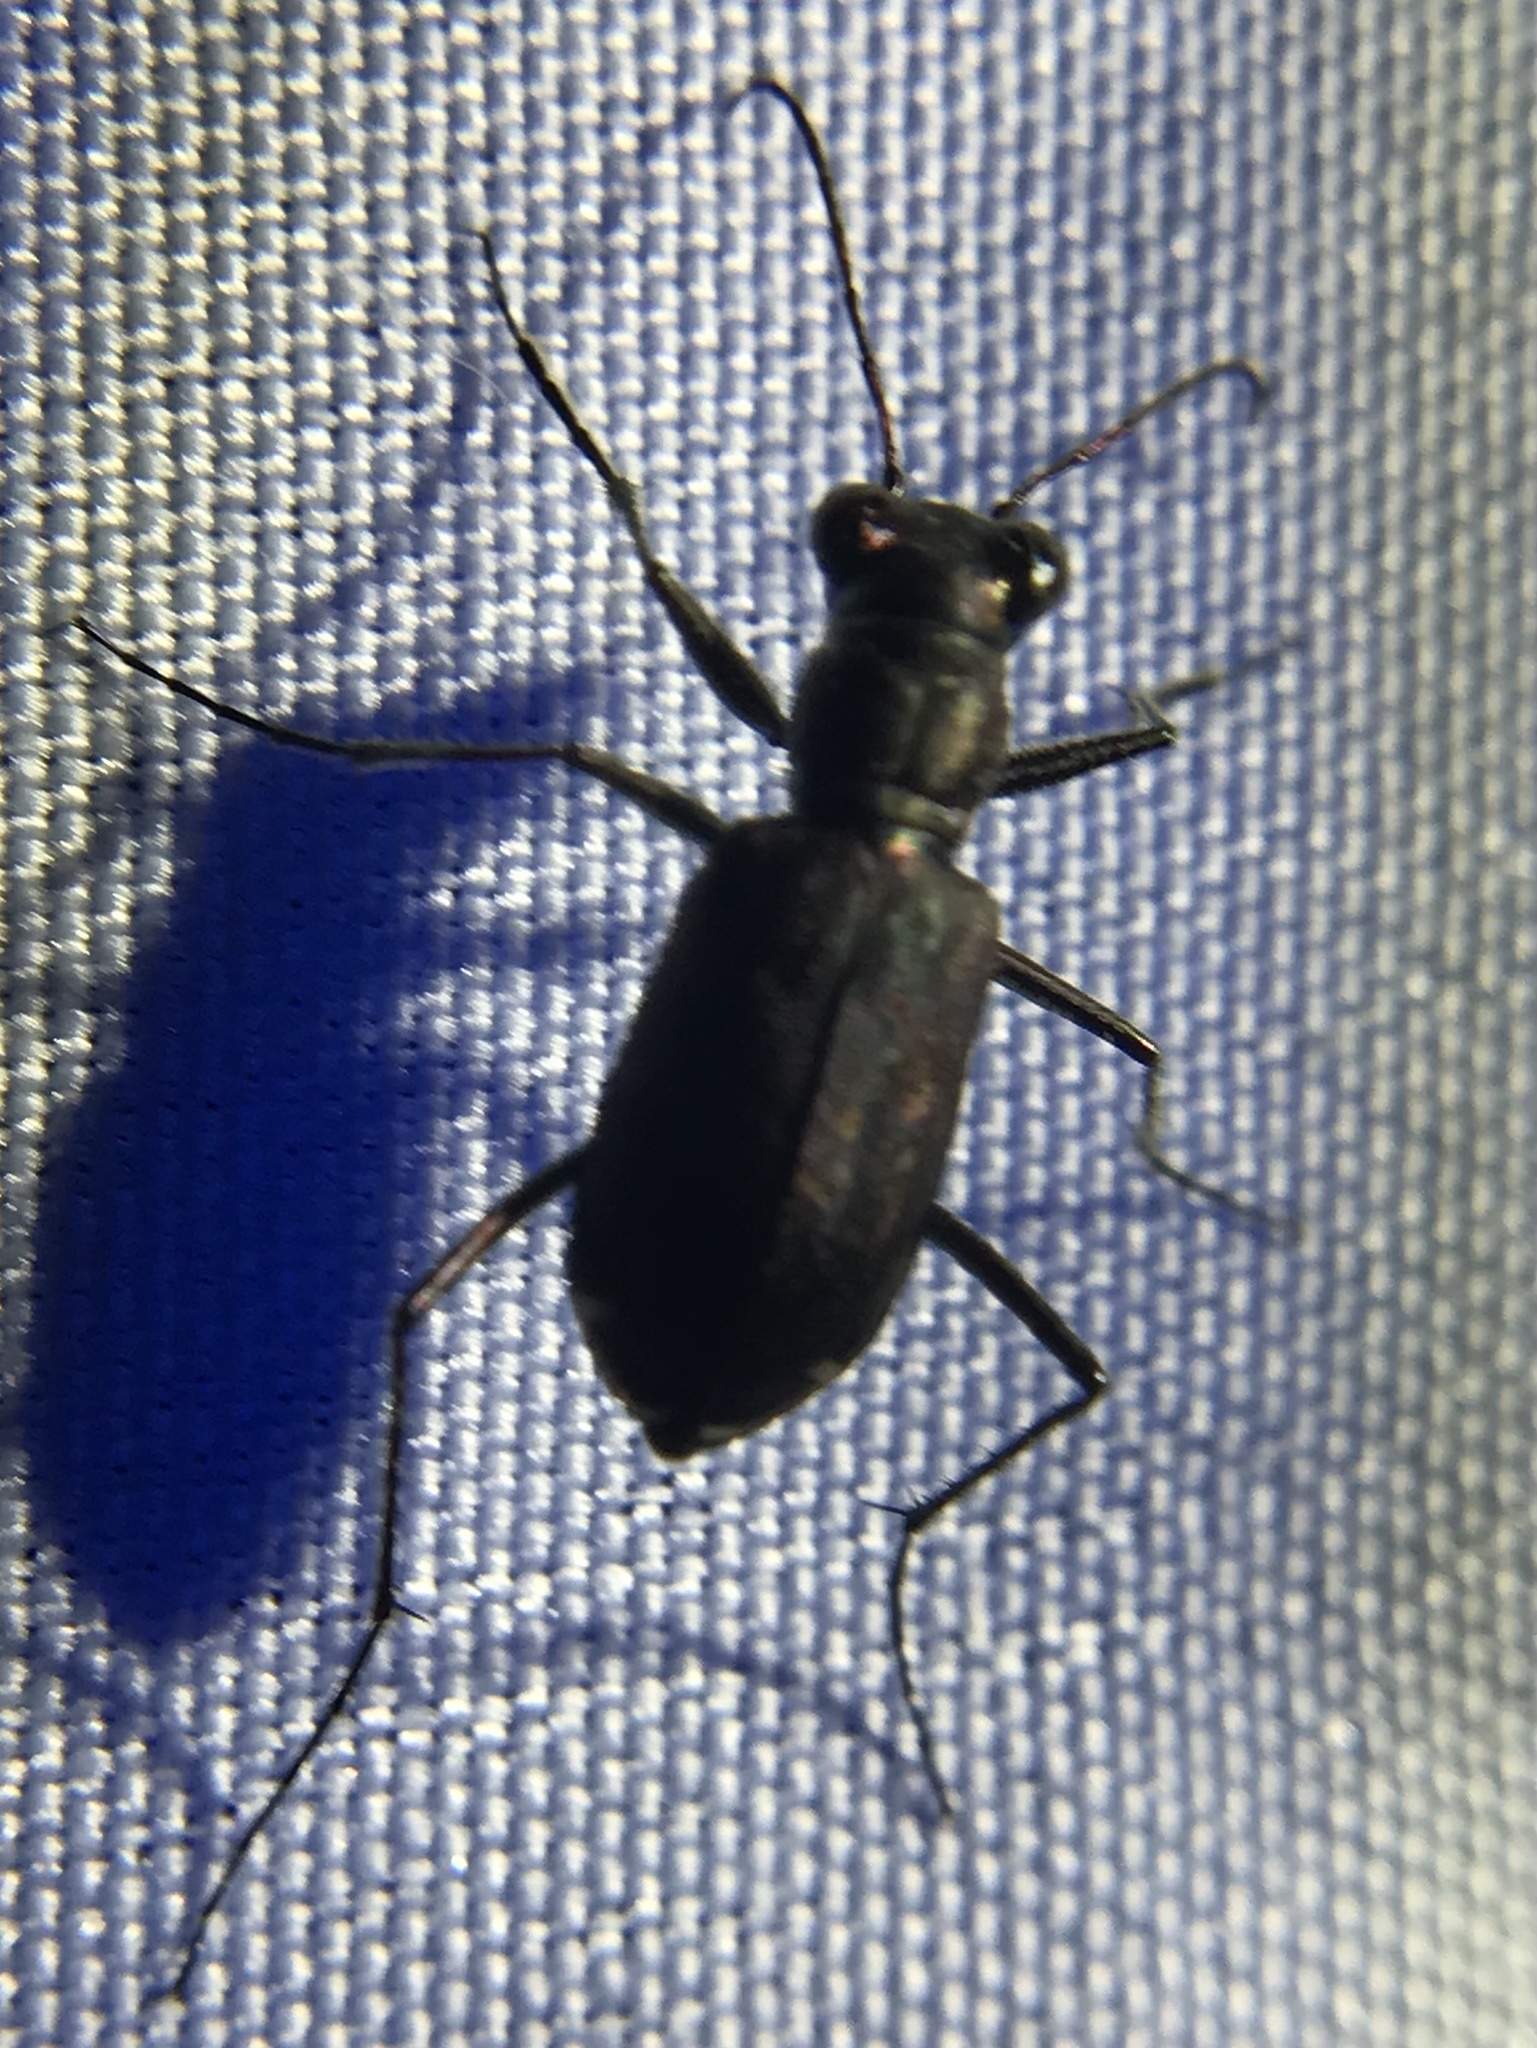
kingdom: Animalia
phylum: Arthropoda
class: Insecta
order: Coleoptera
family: Carabidae
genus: Cicindela
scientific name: Cicindela punctulata
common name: Punctured tiger beetle
